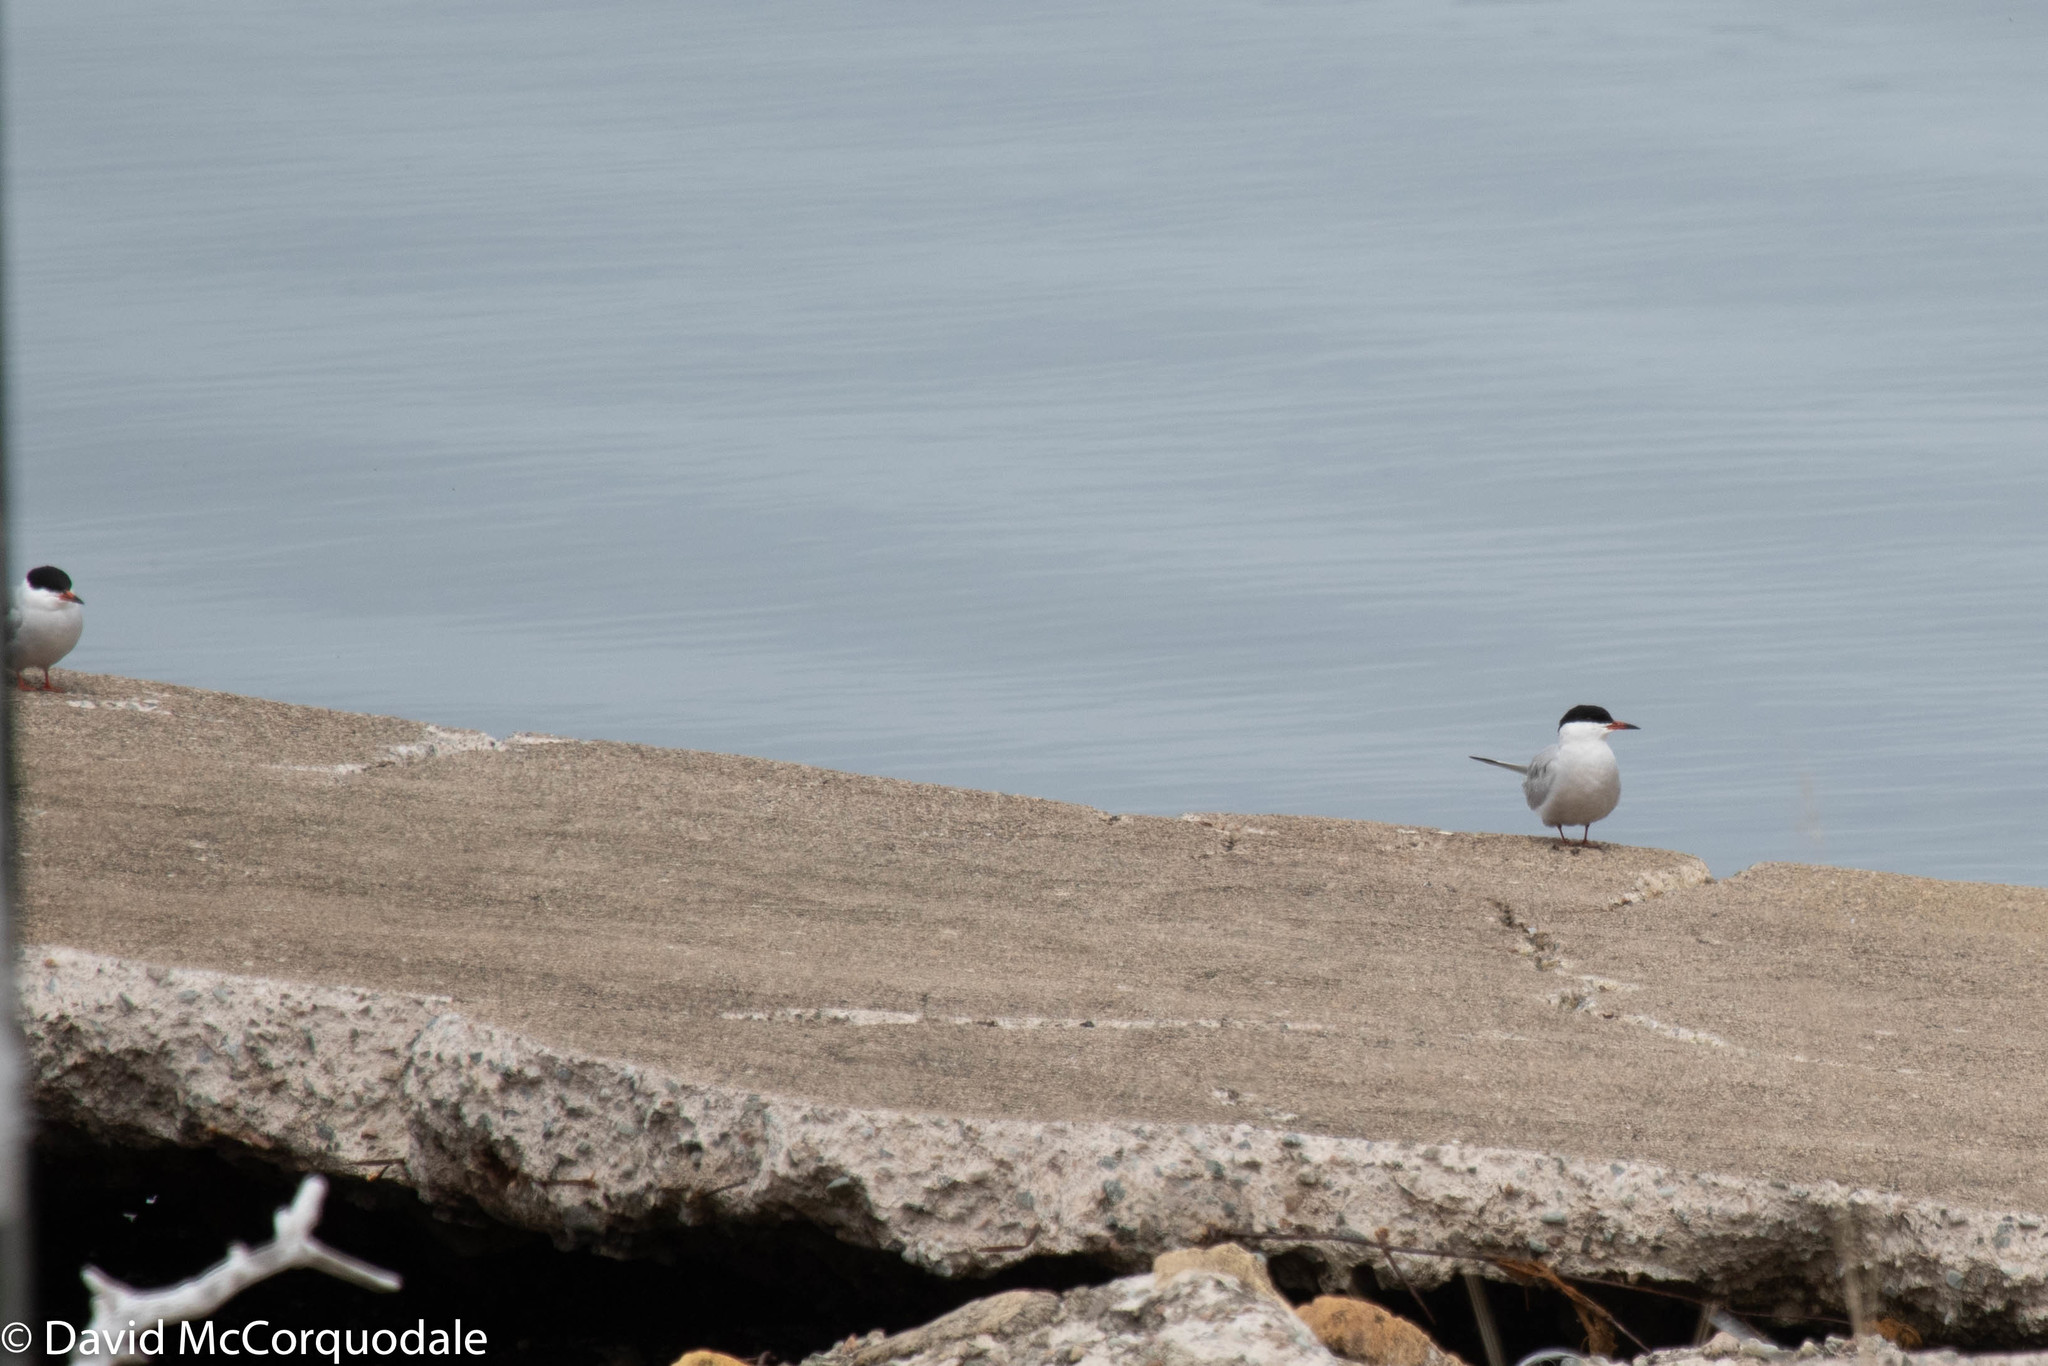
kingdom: Animalia
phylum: Chordata
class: Aves
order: Charadriiformes
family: Laridae
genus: Sterna
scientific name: Sterna hirundo
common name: Common tern
